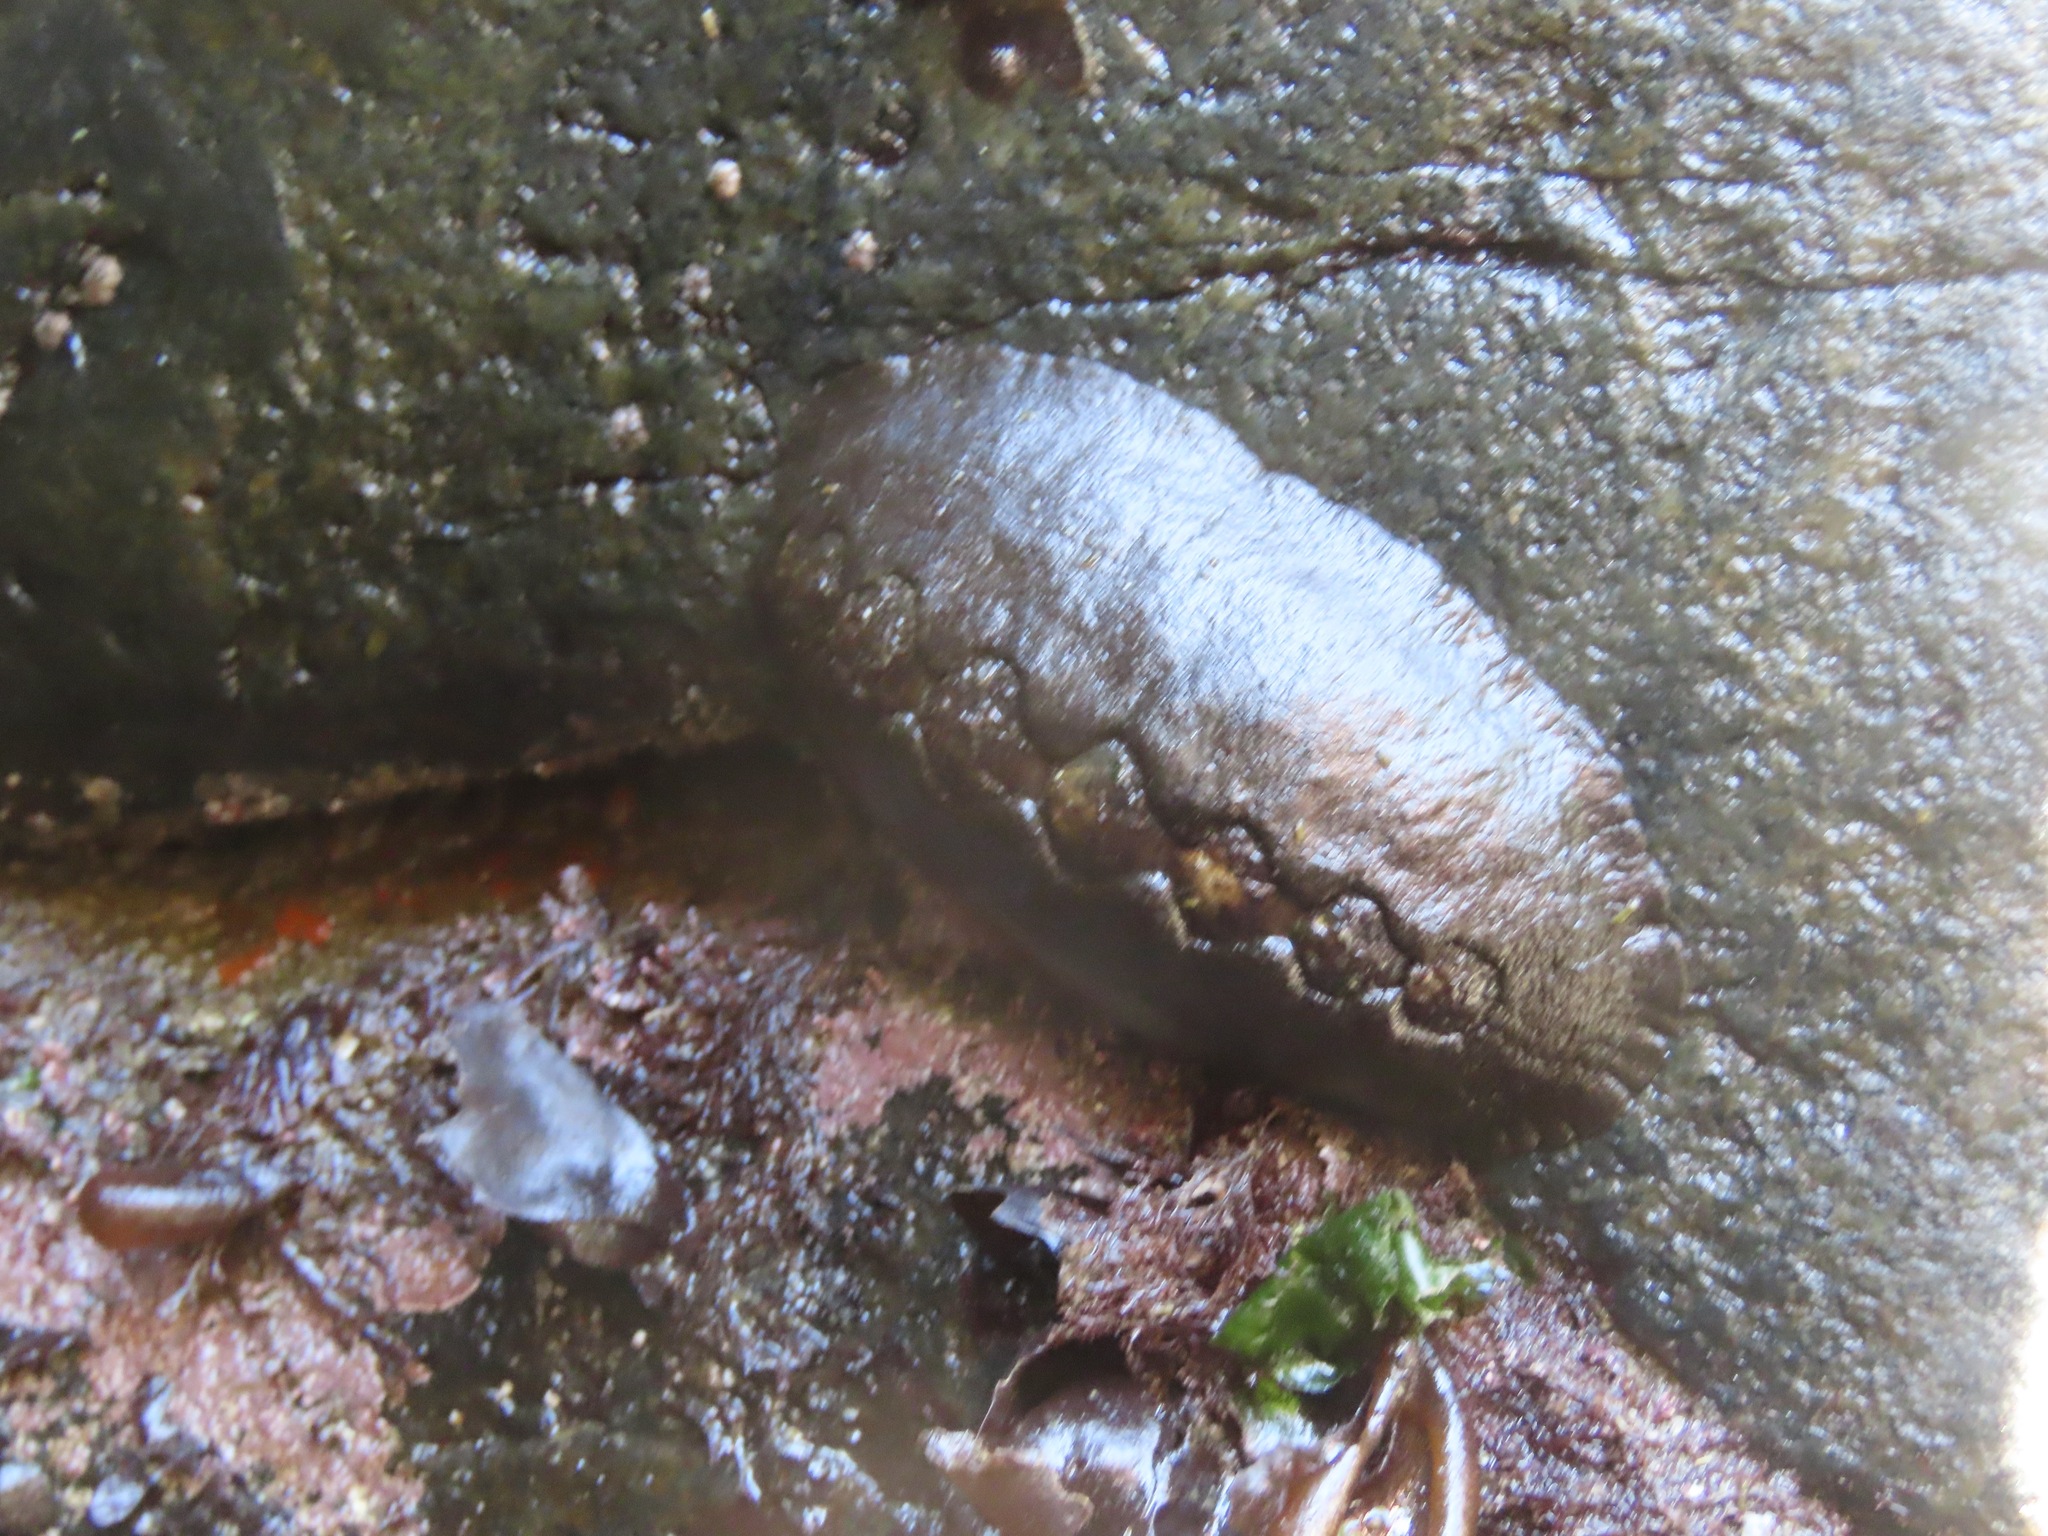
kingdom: Animalia
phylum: Mollusca
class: Polyplacophora
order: Chitonida
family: Mopaliidae
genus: Katharina
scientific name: Katharina tunicata
